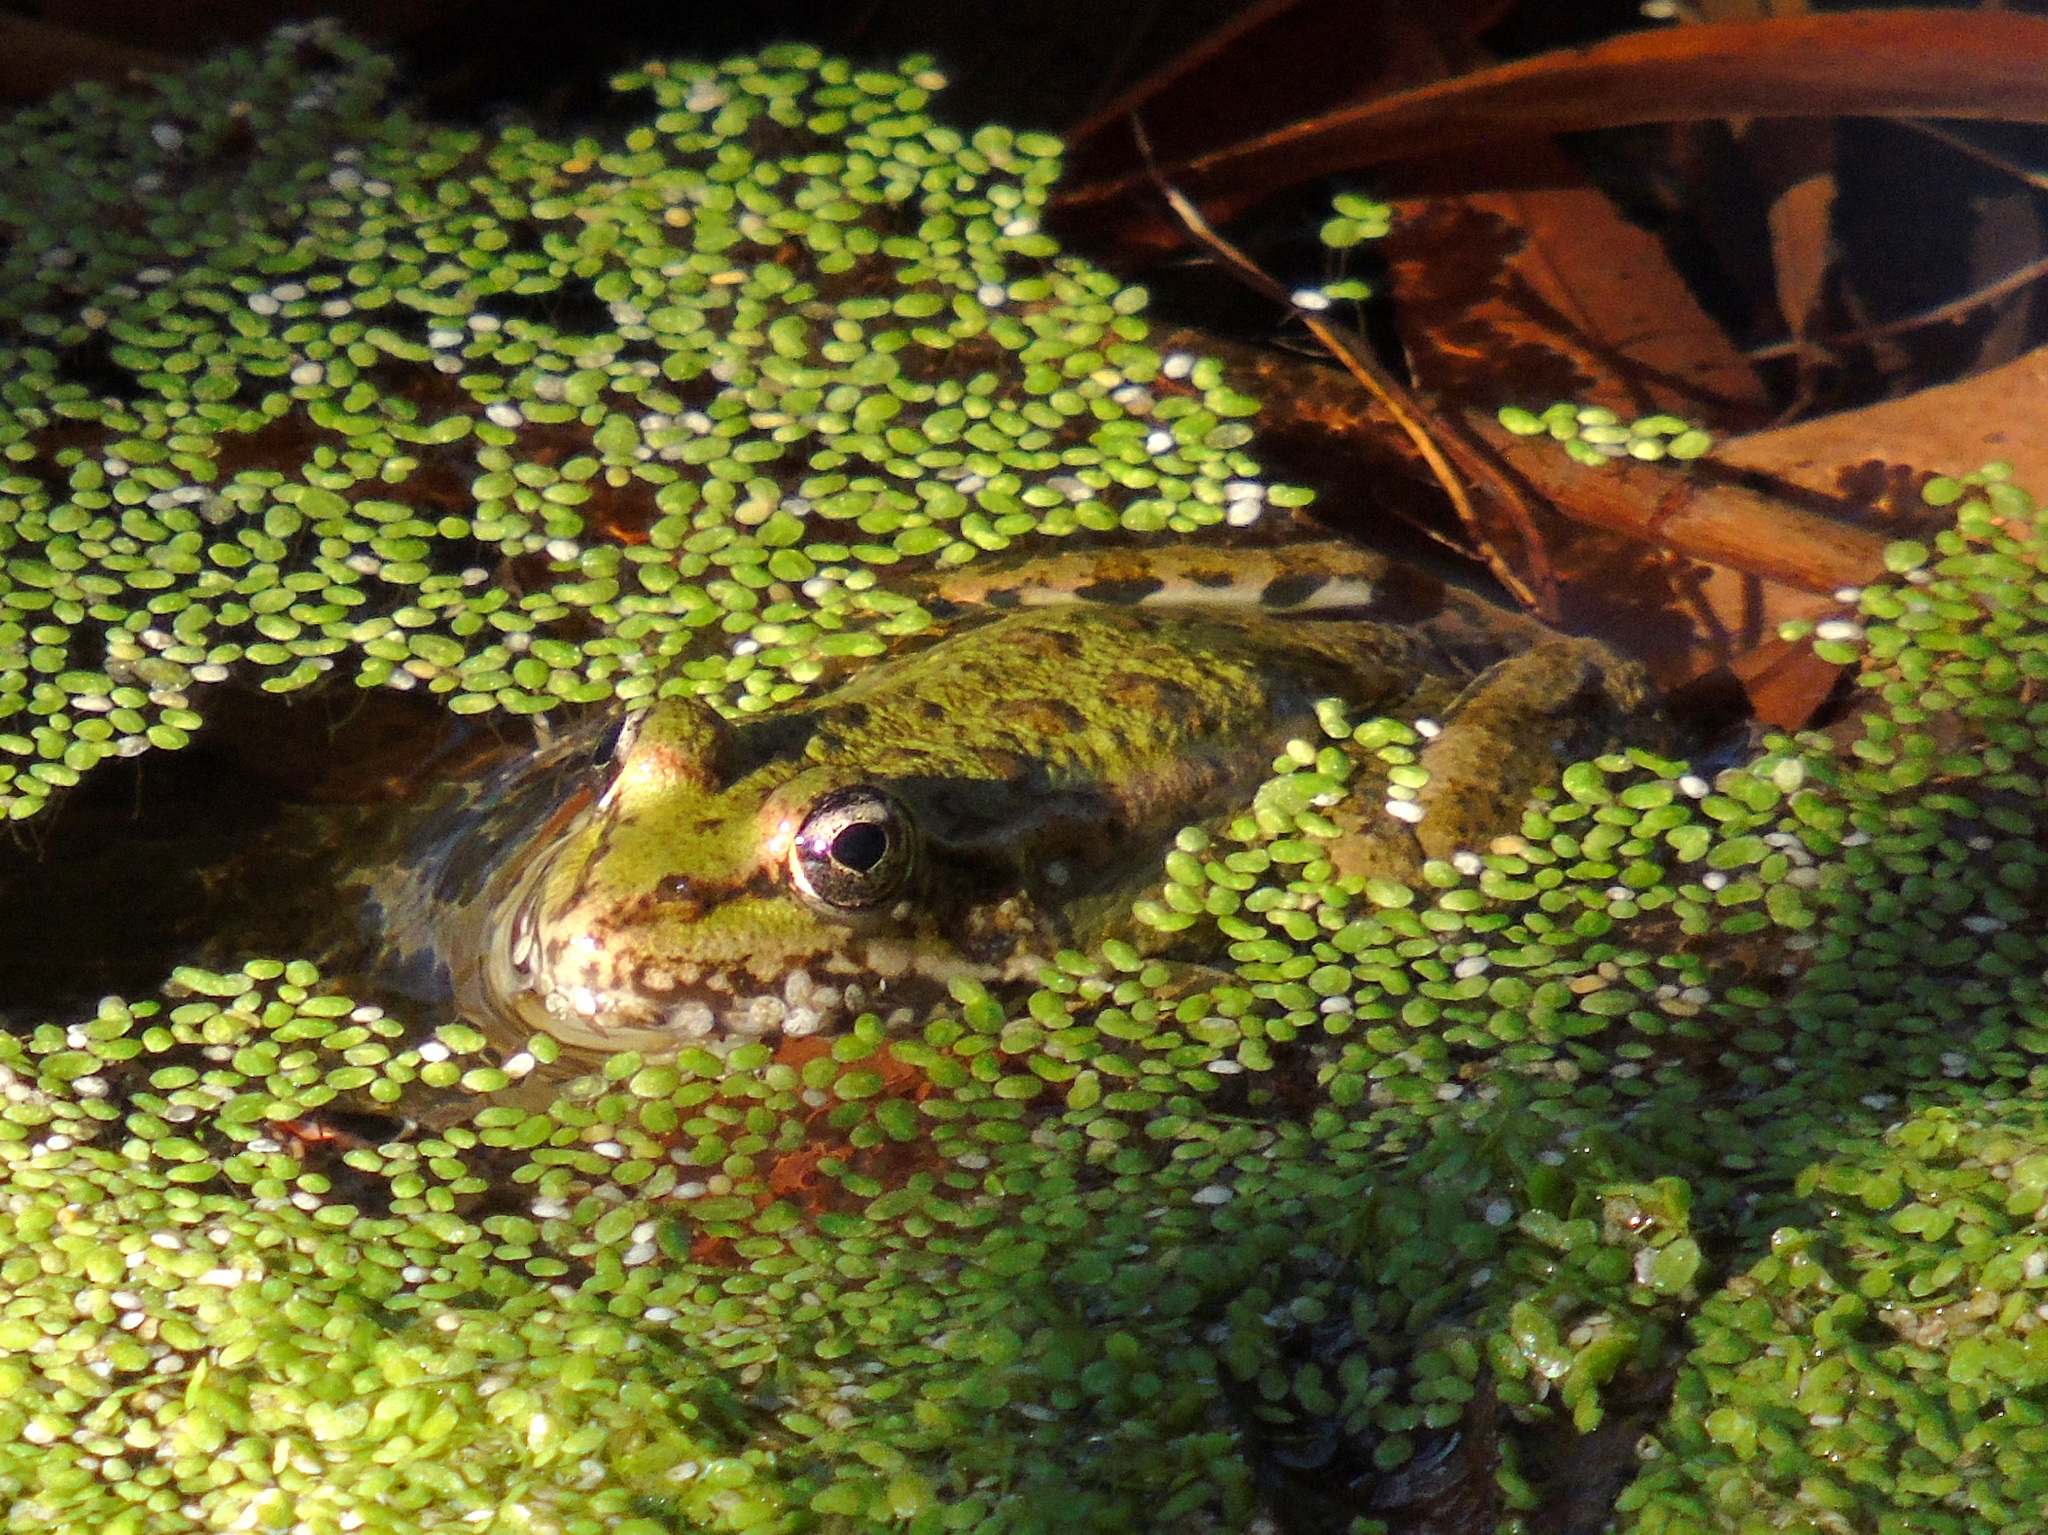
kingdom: Animalia
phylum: Chordata
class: Amphibia
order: Anura
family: Ranidae
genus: Pelophylax
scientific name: Pelophylax ridibundus
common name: Marsh frog
